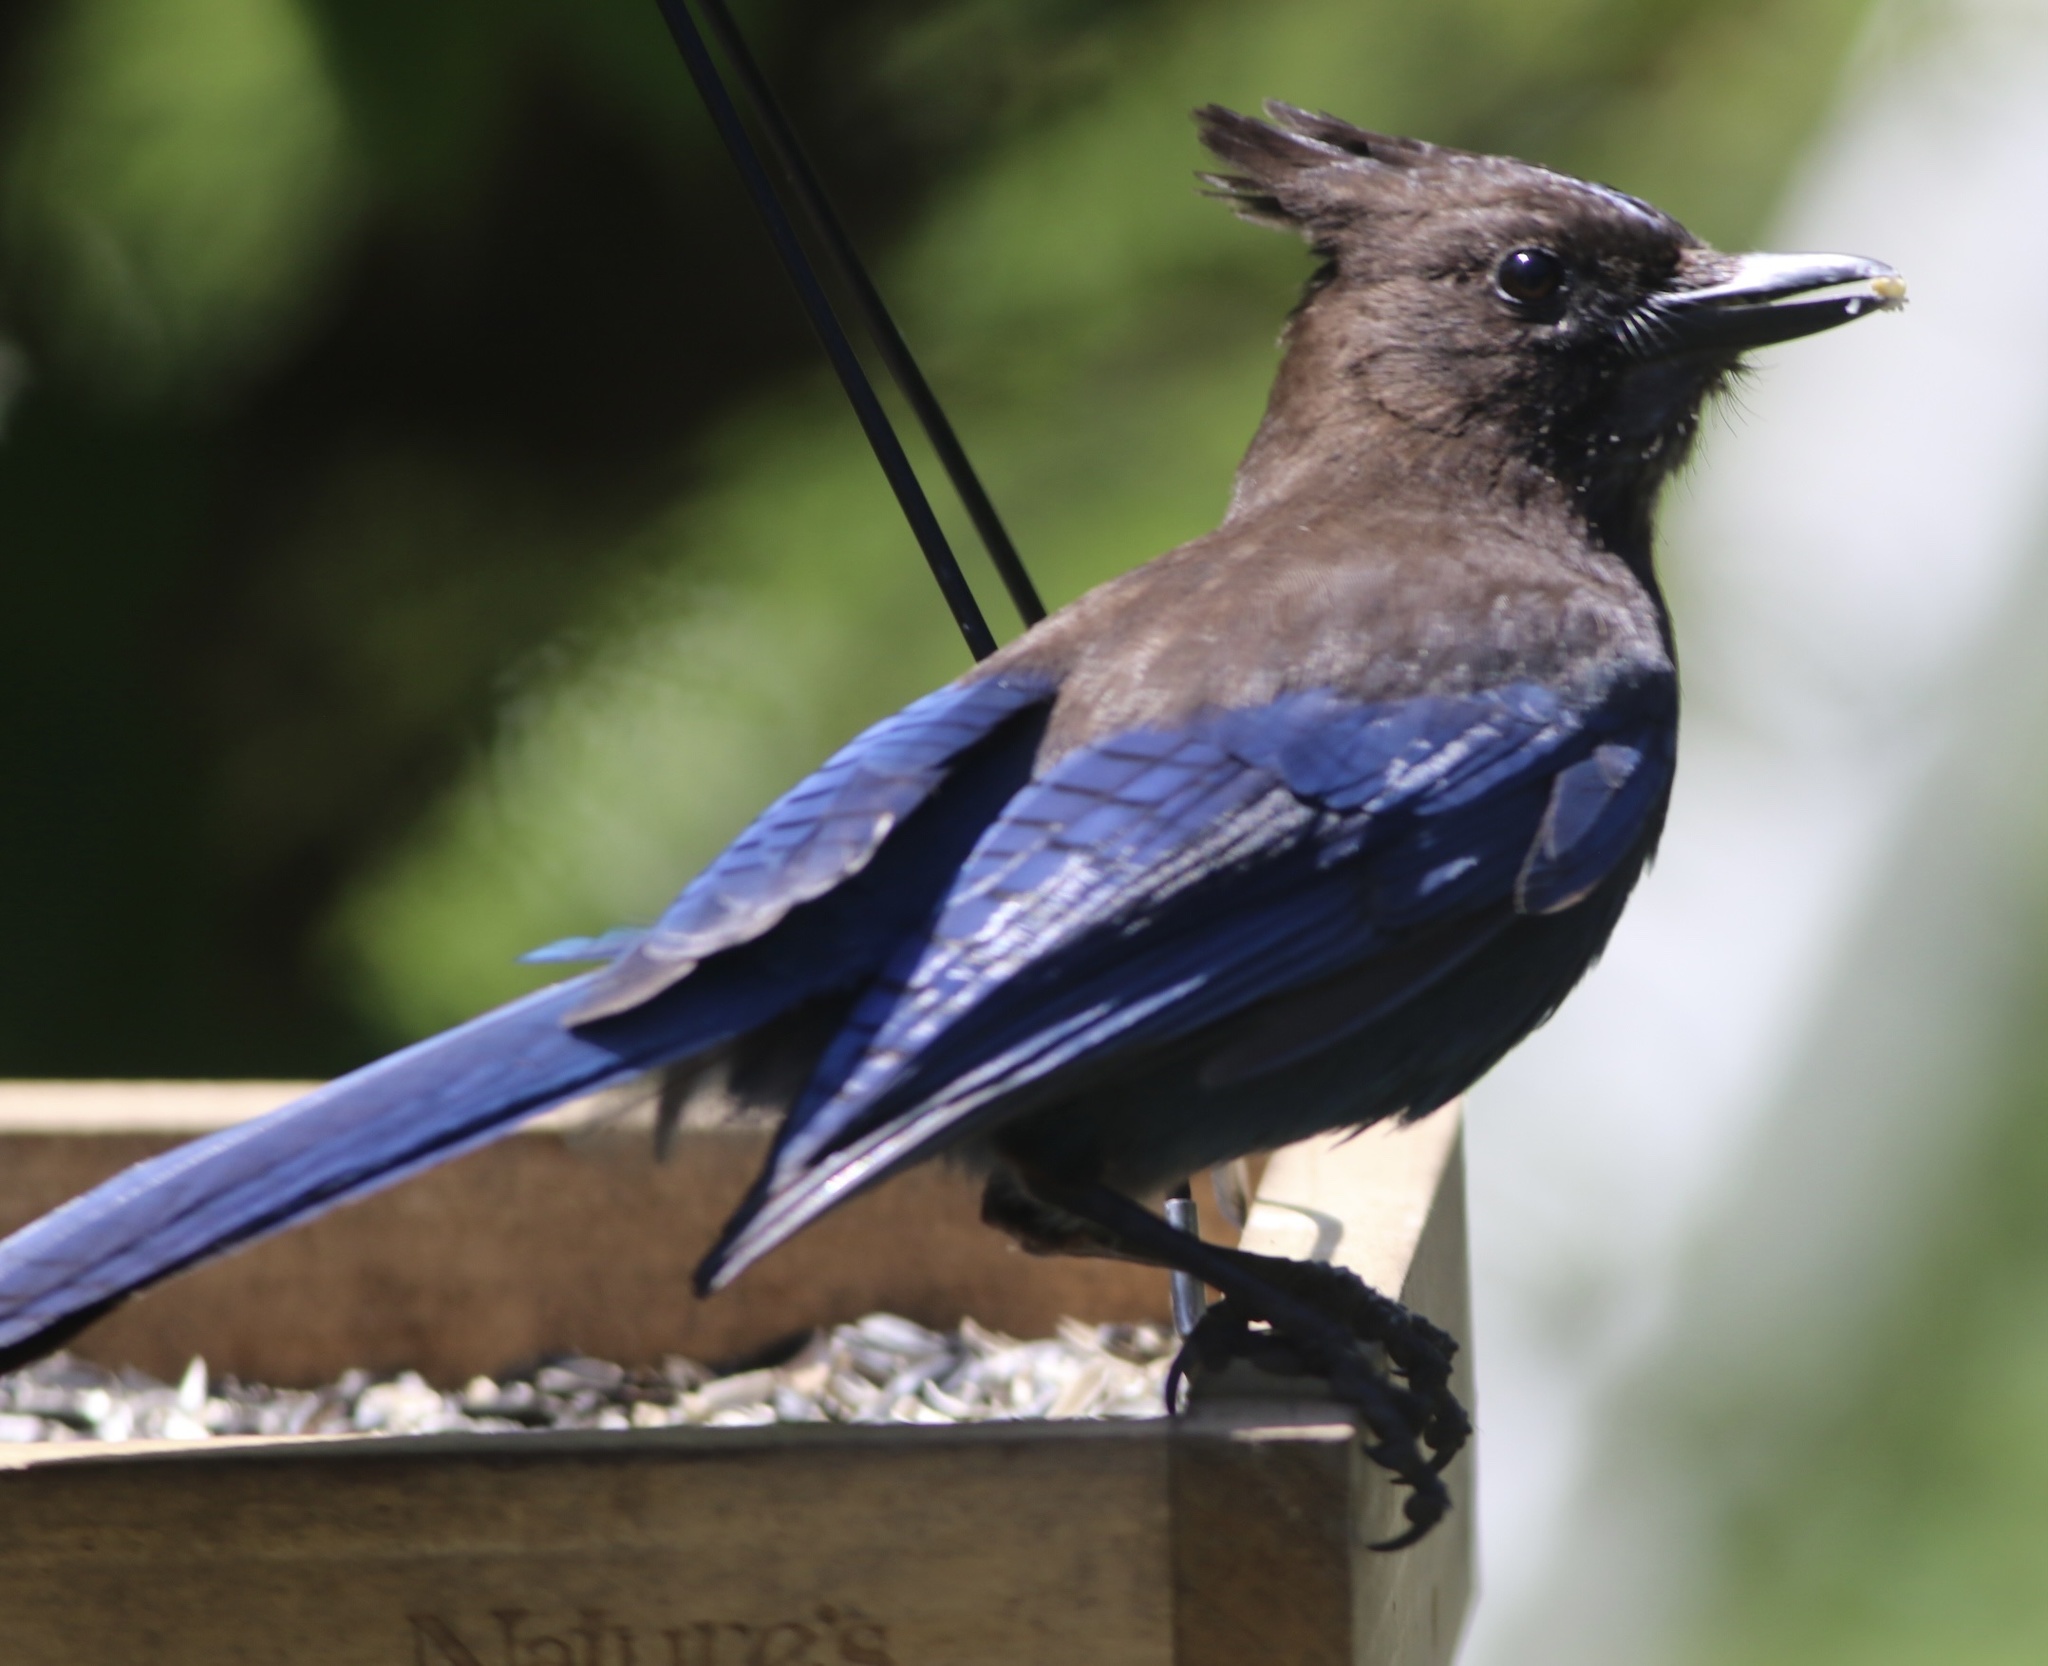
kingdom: Animalia
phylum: Chordata
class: Aves
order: Passeriformes
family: Corvidae
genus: Cyanocitta
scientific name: Cyanocitta stelleri
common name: Steller's jay
